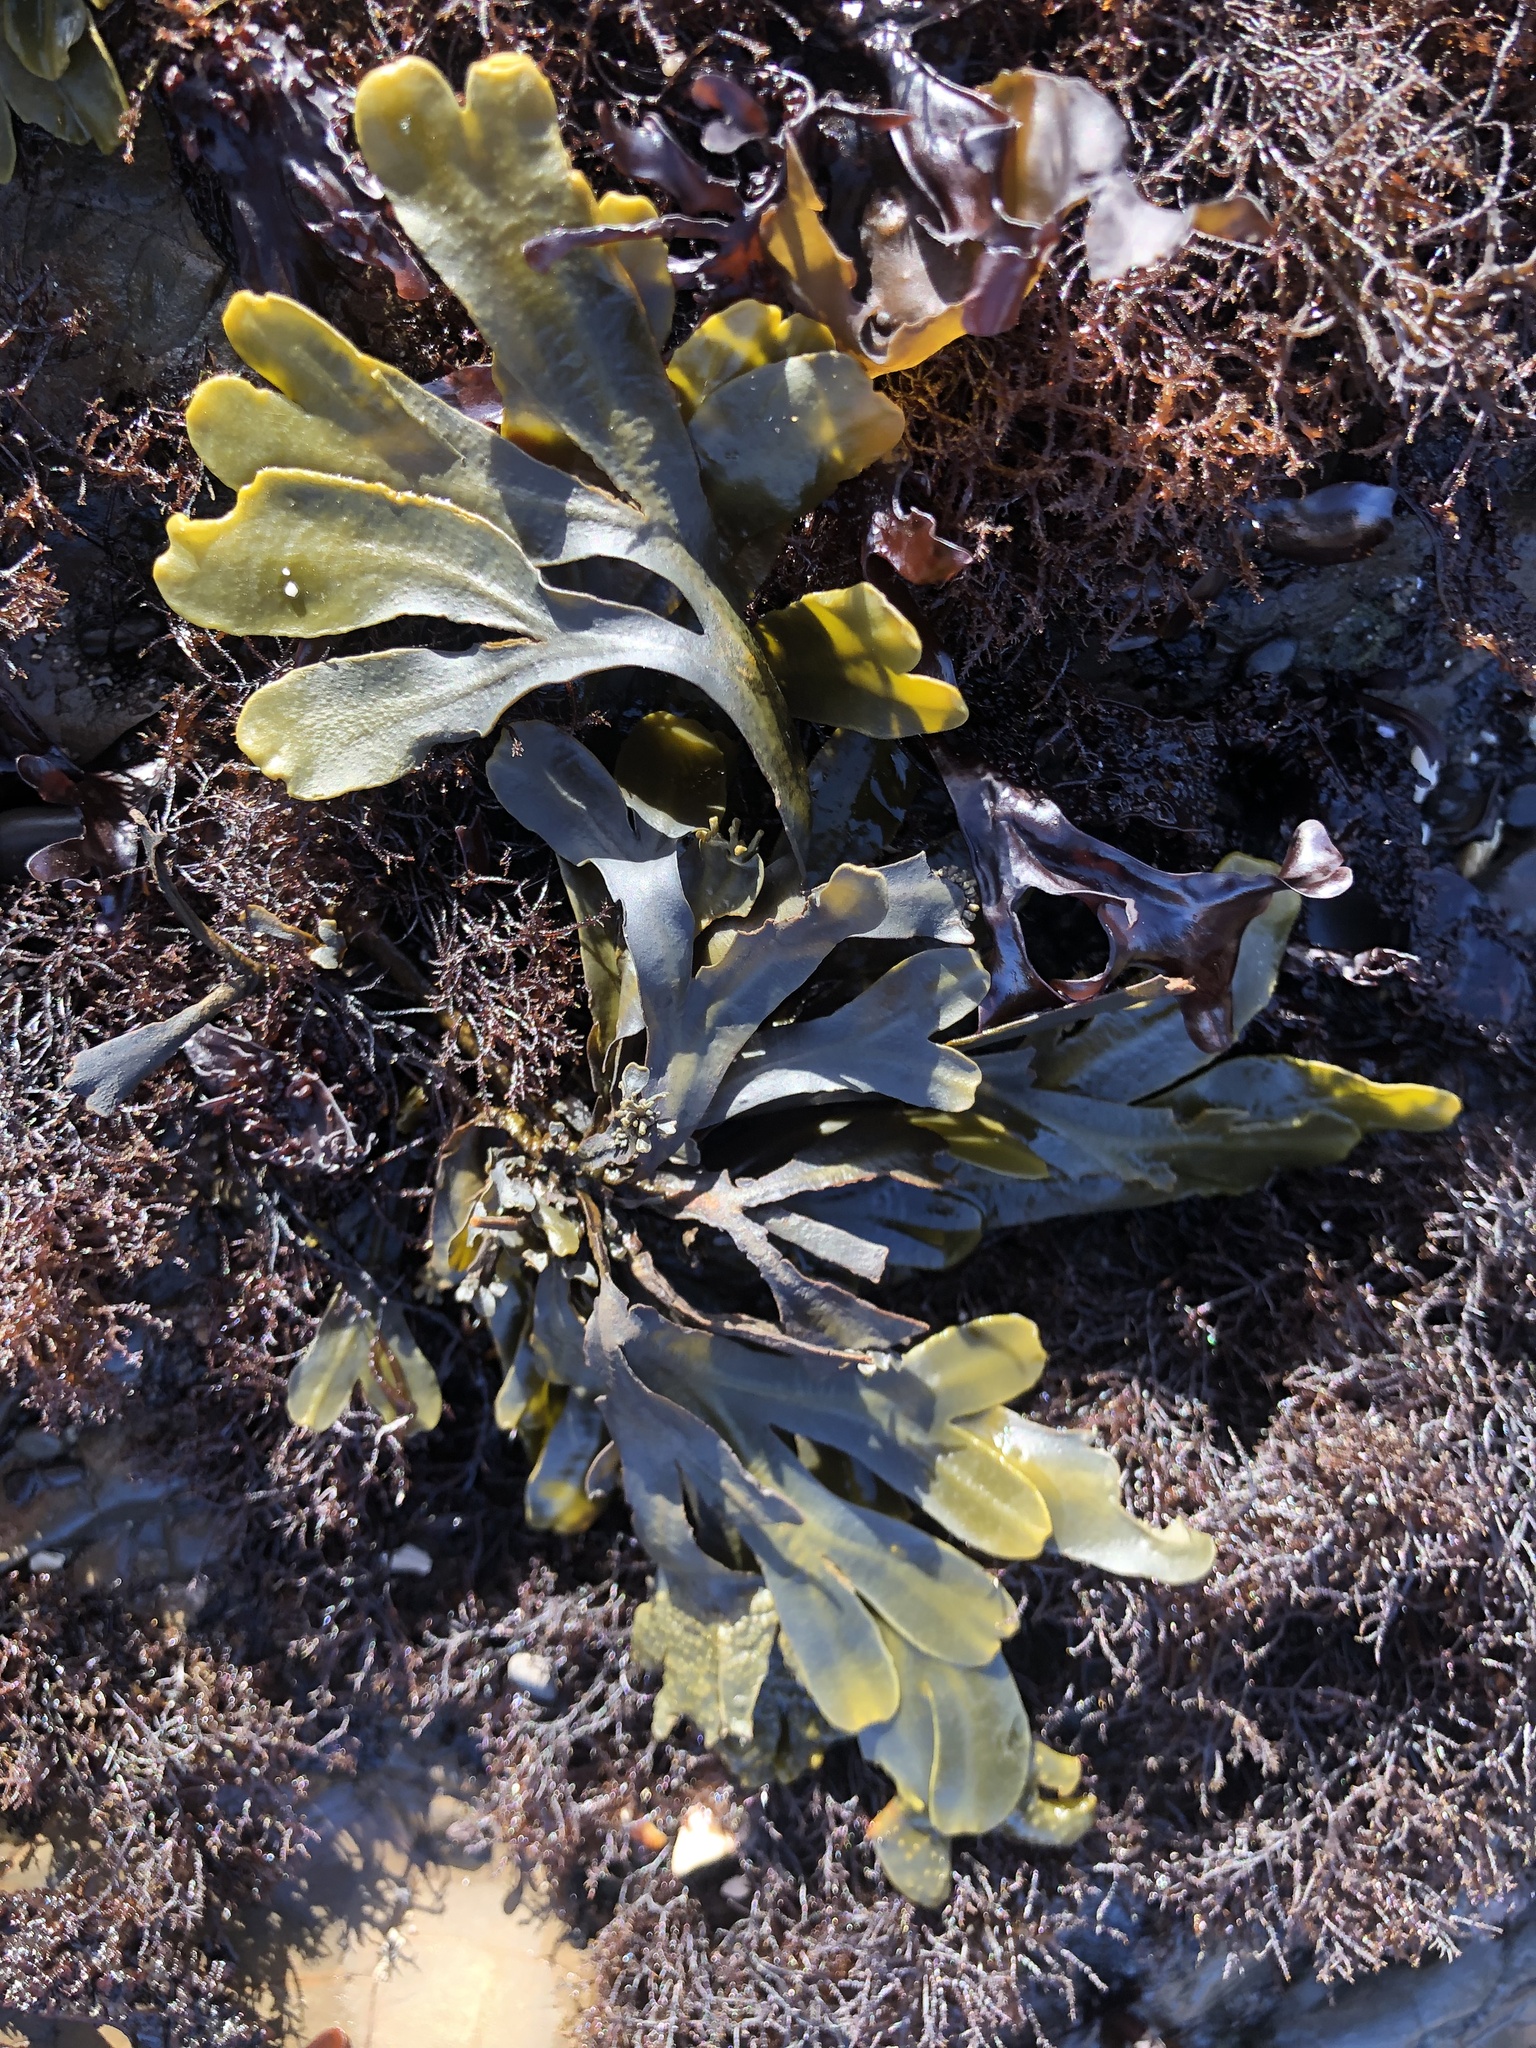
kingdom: Chromista
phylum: Ochrophyta
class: Phaeophyceae
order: Fucales
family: Fucaceae
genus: Fucus
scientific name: Fucus distichus
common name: Rockweed
